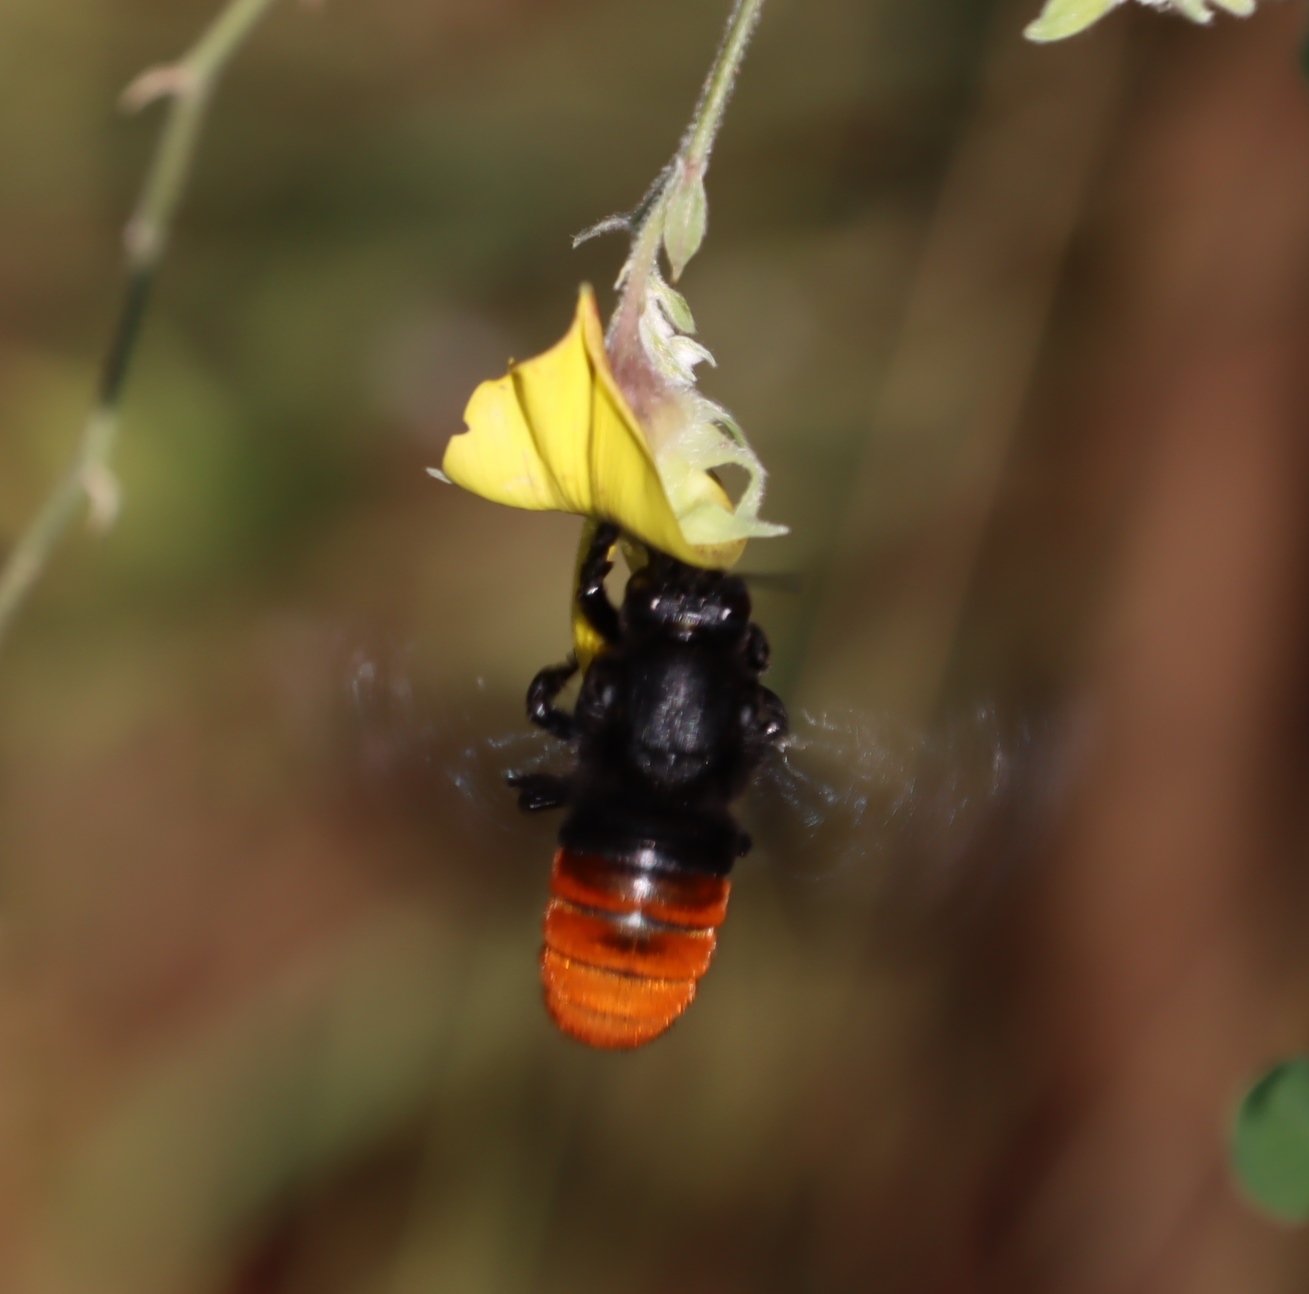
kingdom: Animalia
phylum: Arthropoda
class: Insecta
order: Hymenoptera
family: Megachilidae
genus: Gronoceras
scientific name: Gronoceras cinctum
